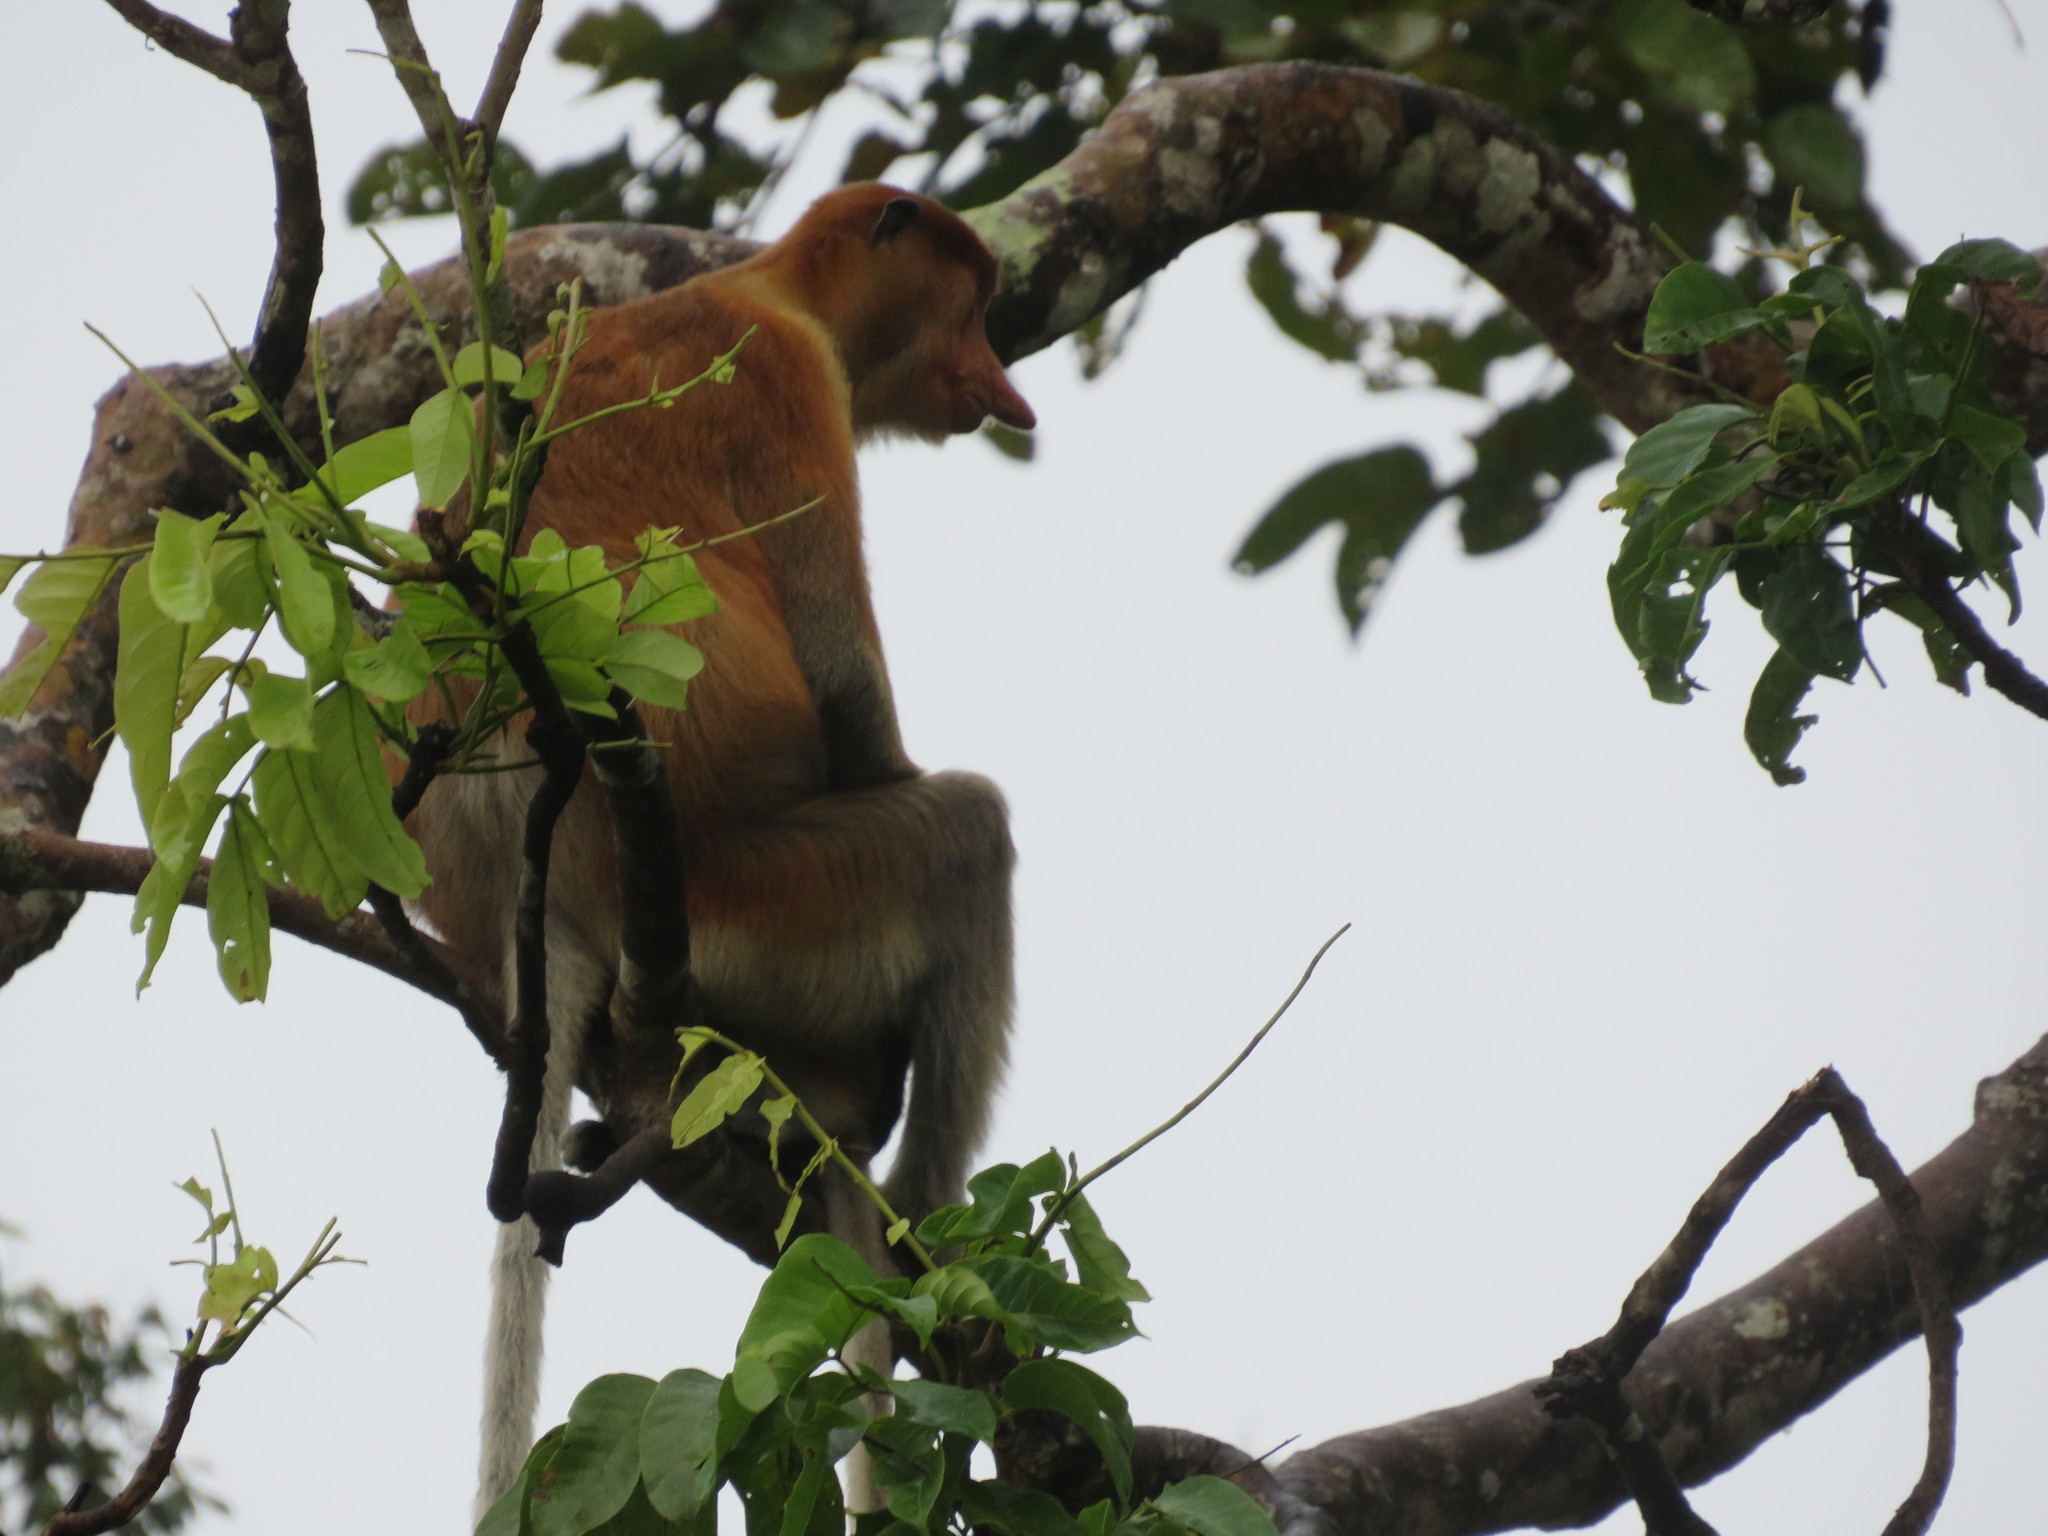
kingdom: Animalia
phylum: Chordata
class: Mammalia
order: Primates
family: Cercopithecidae
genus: Nasalis
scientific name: Nasalis larvatus
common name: Proboscis monkey
